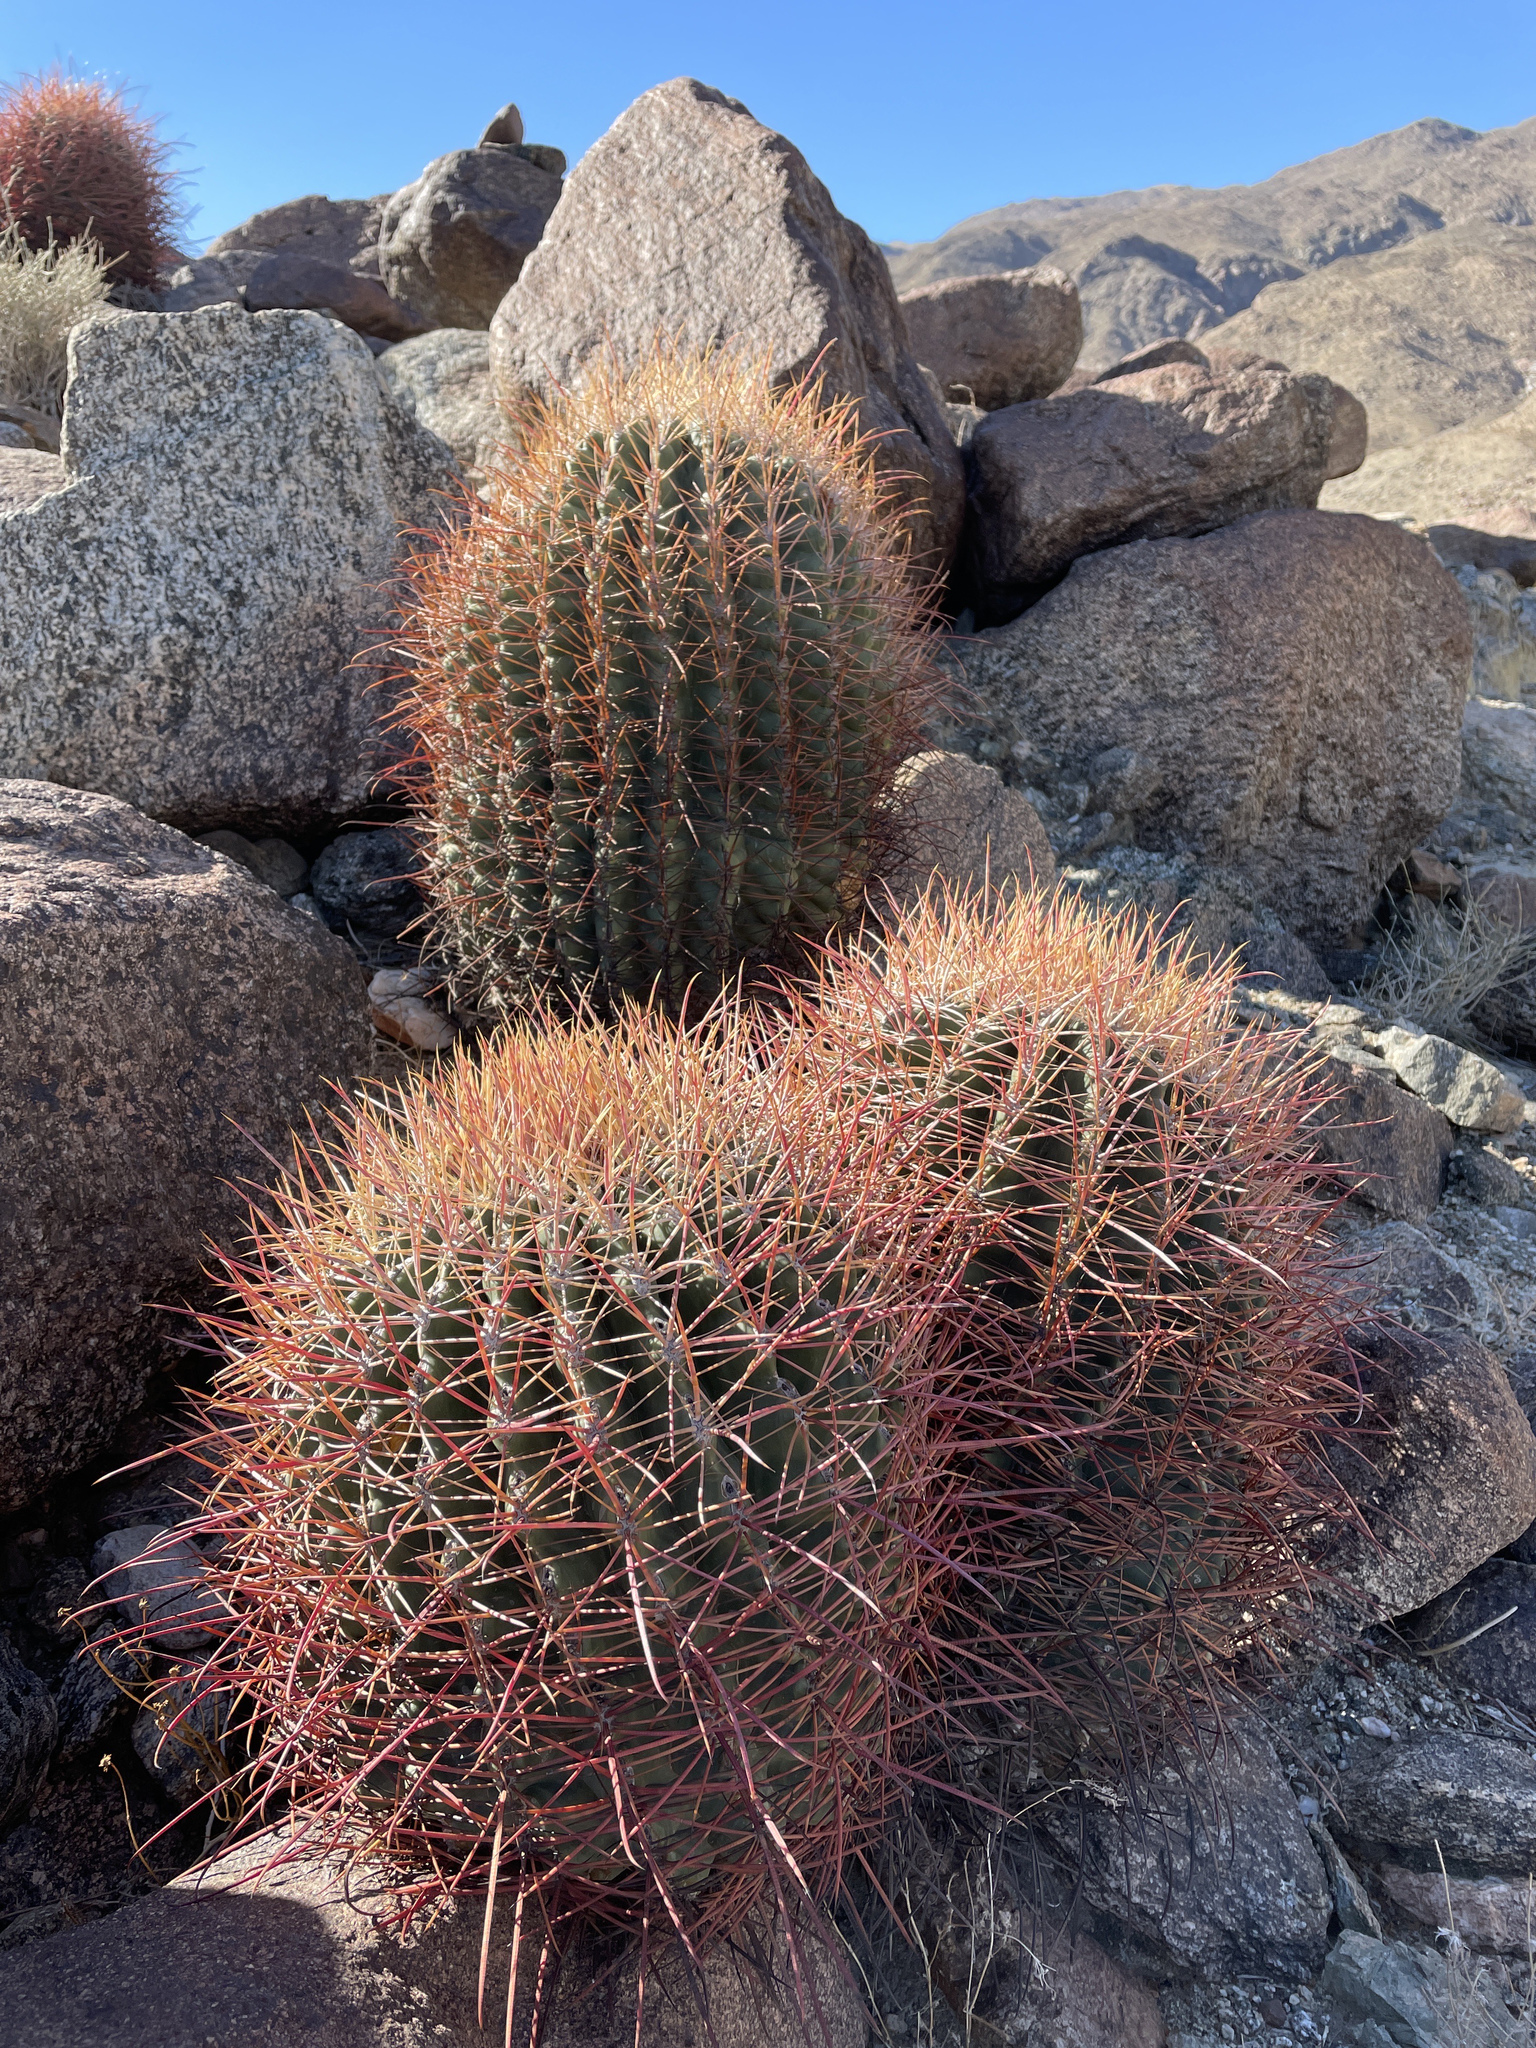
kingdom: Plantae
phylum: Tracheophyta
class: Magnoliopsida
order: Caryophyllales
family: Cactaceae
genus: Ferocactus
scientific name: Ferocactus cylindraceus
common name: California barrel cactus
